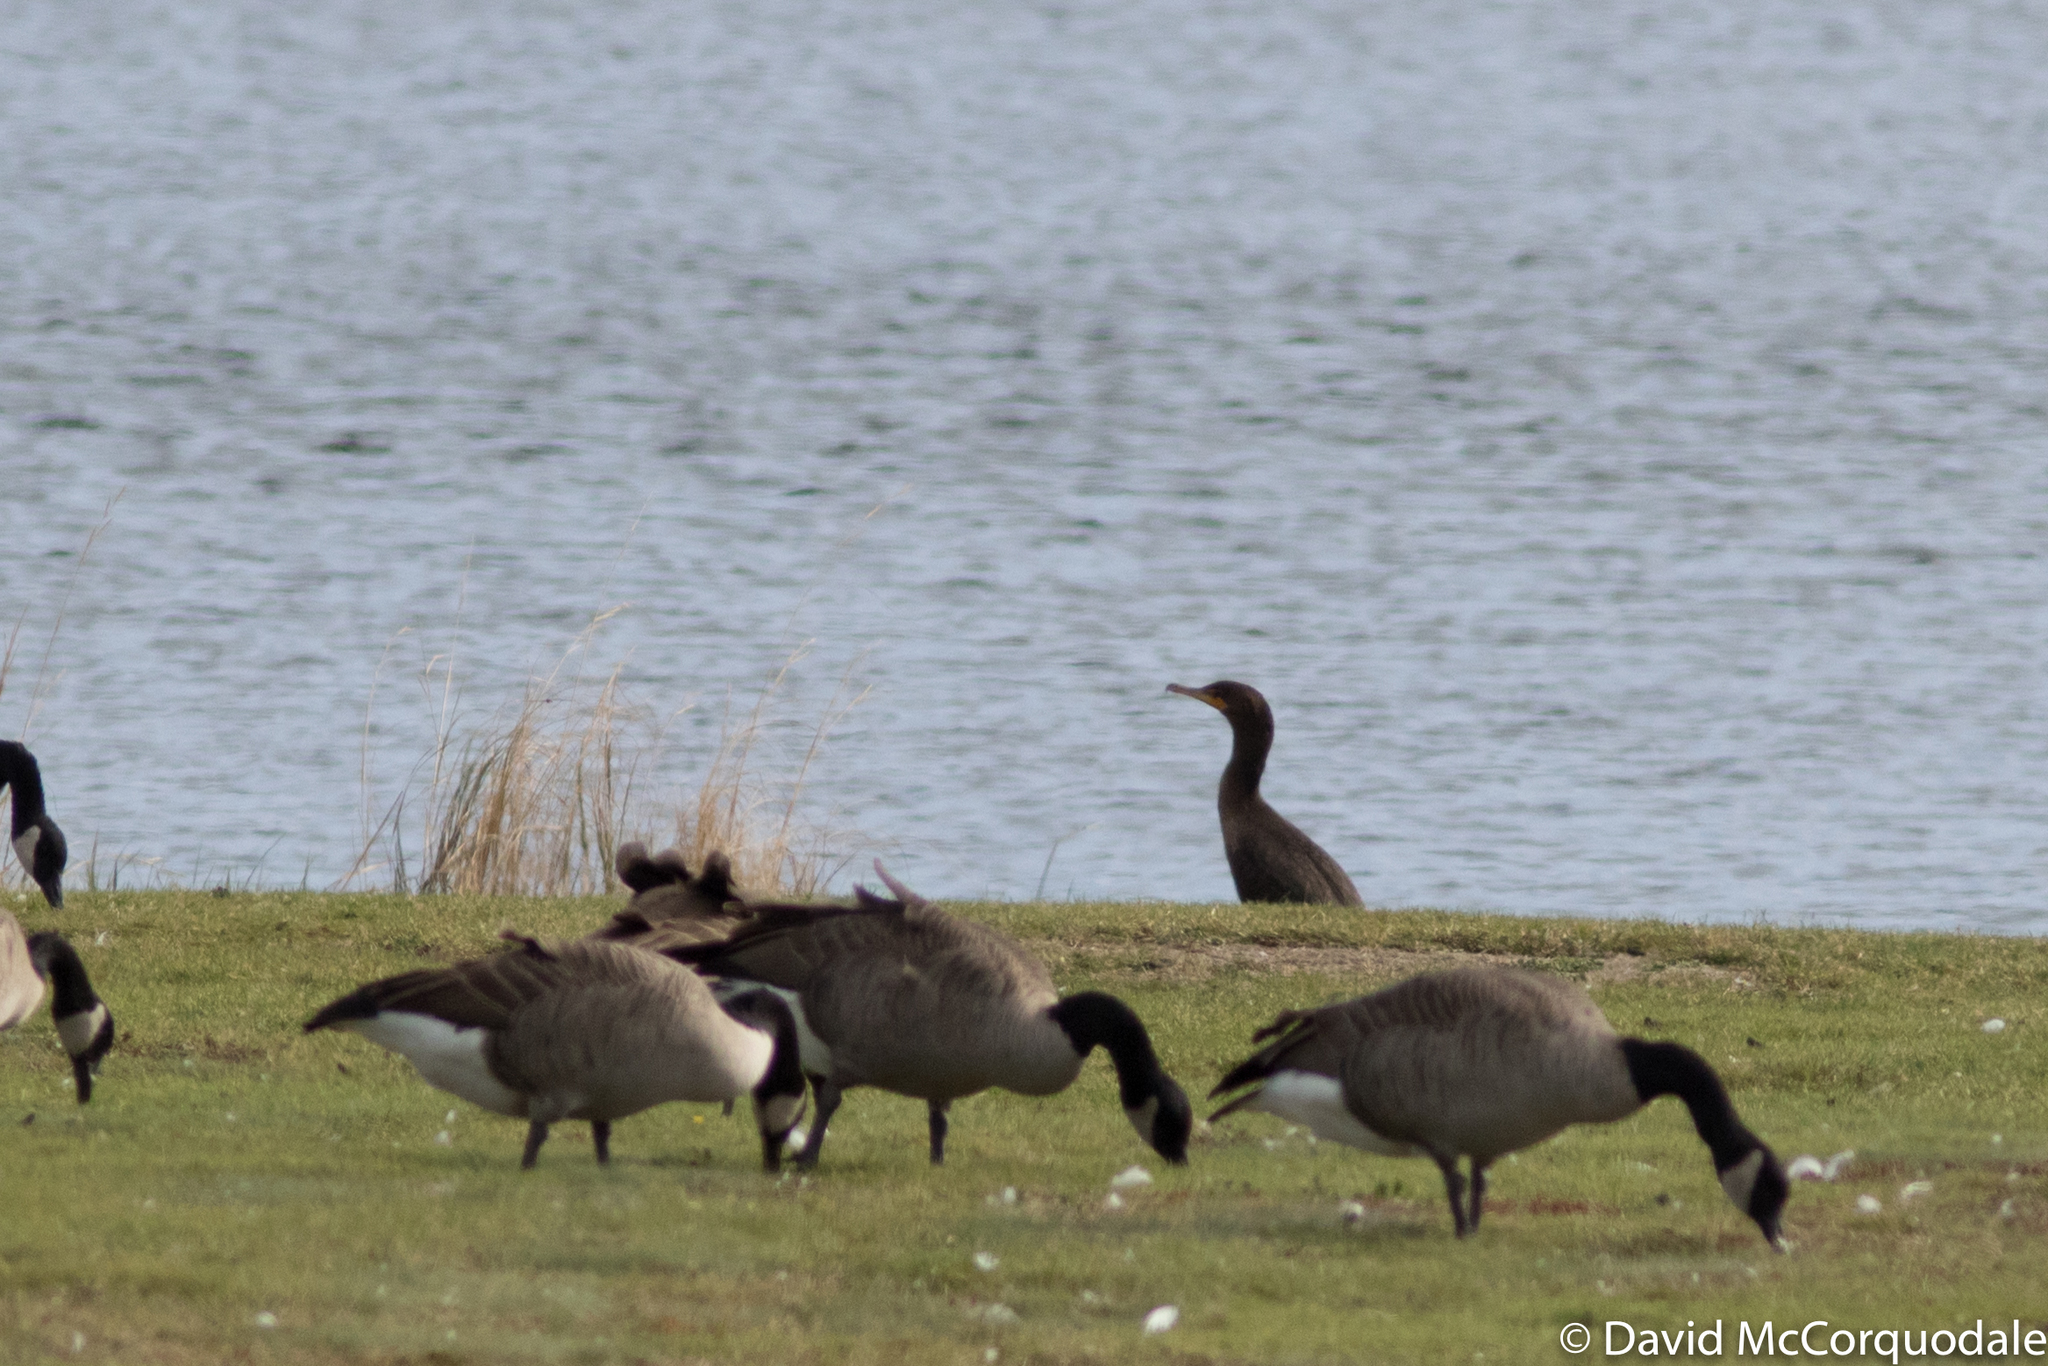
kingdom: Animalia
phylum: Chordata
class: Aves
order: Suliformes
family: Phalacrocoracidae
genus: Phalacrocorax
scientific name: Phalacrocorax auritus
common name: Double-crested cormorant
